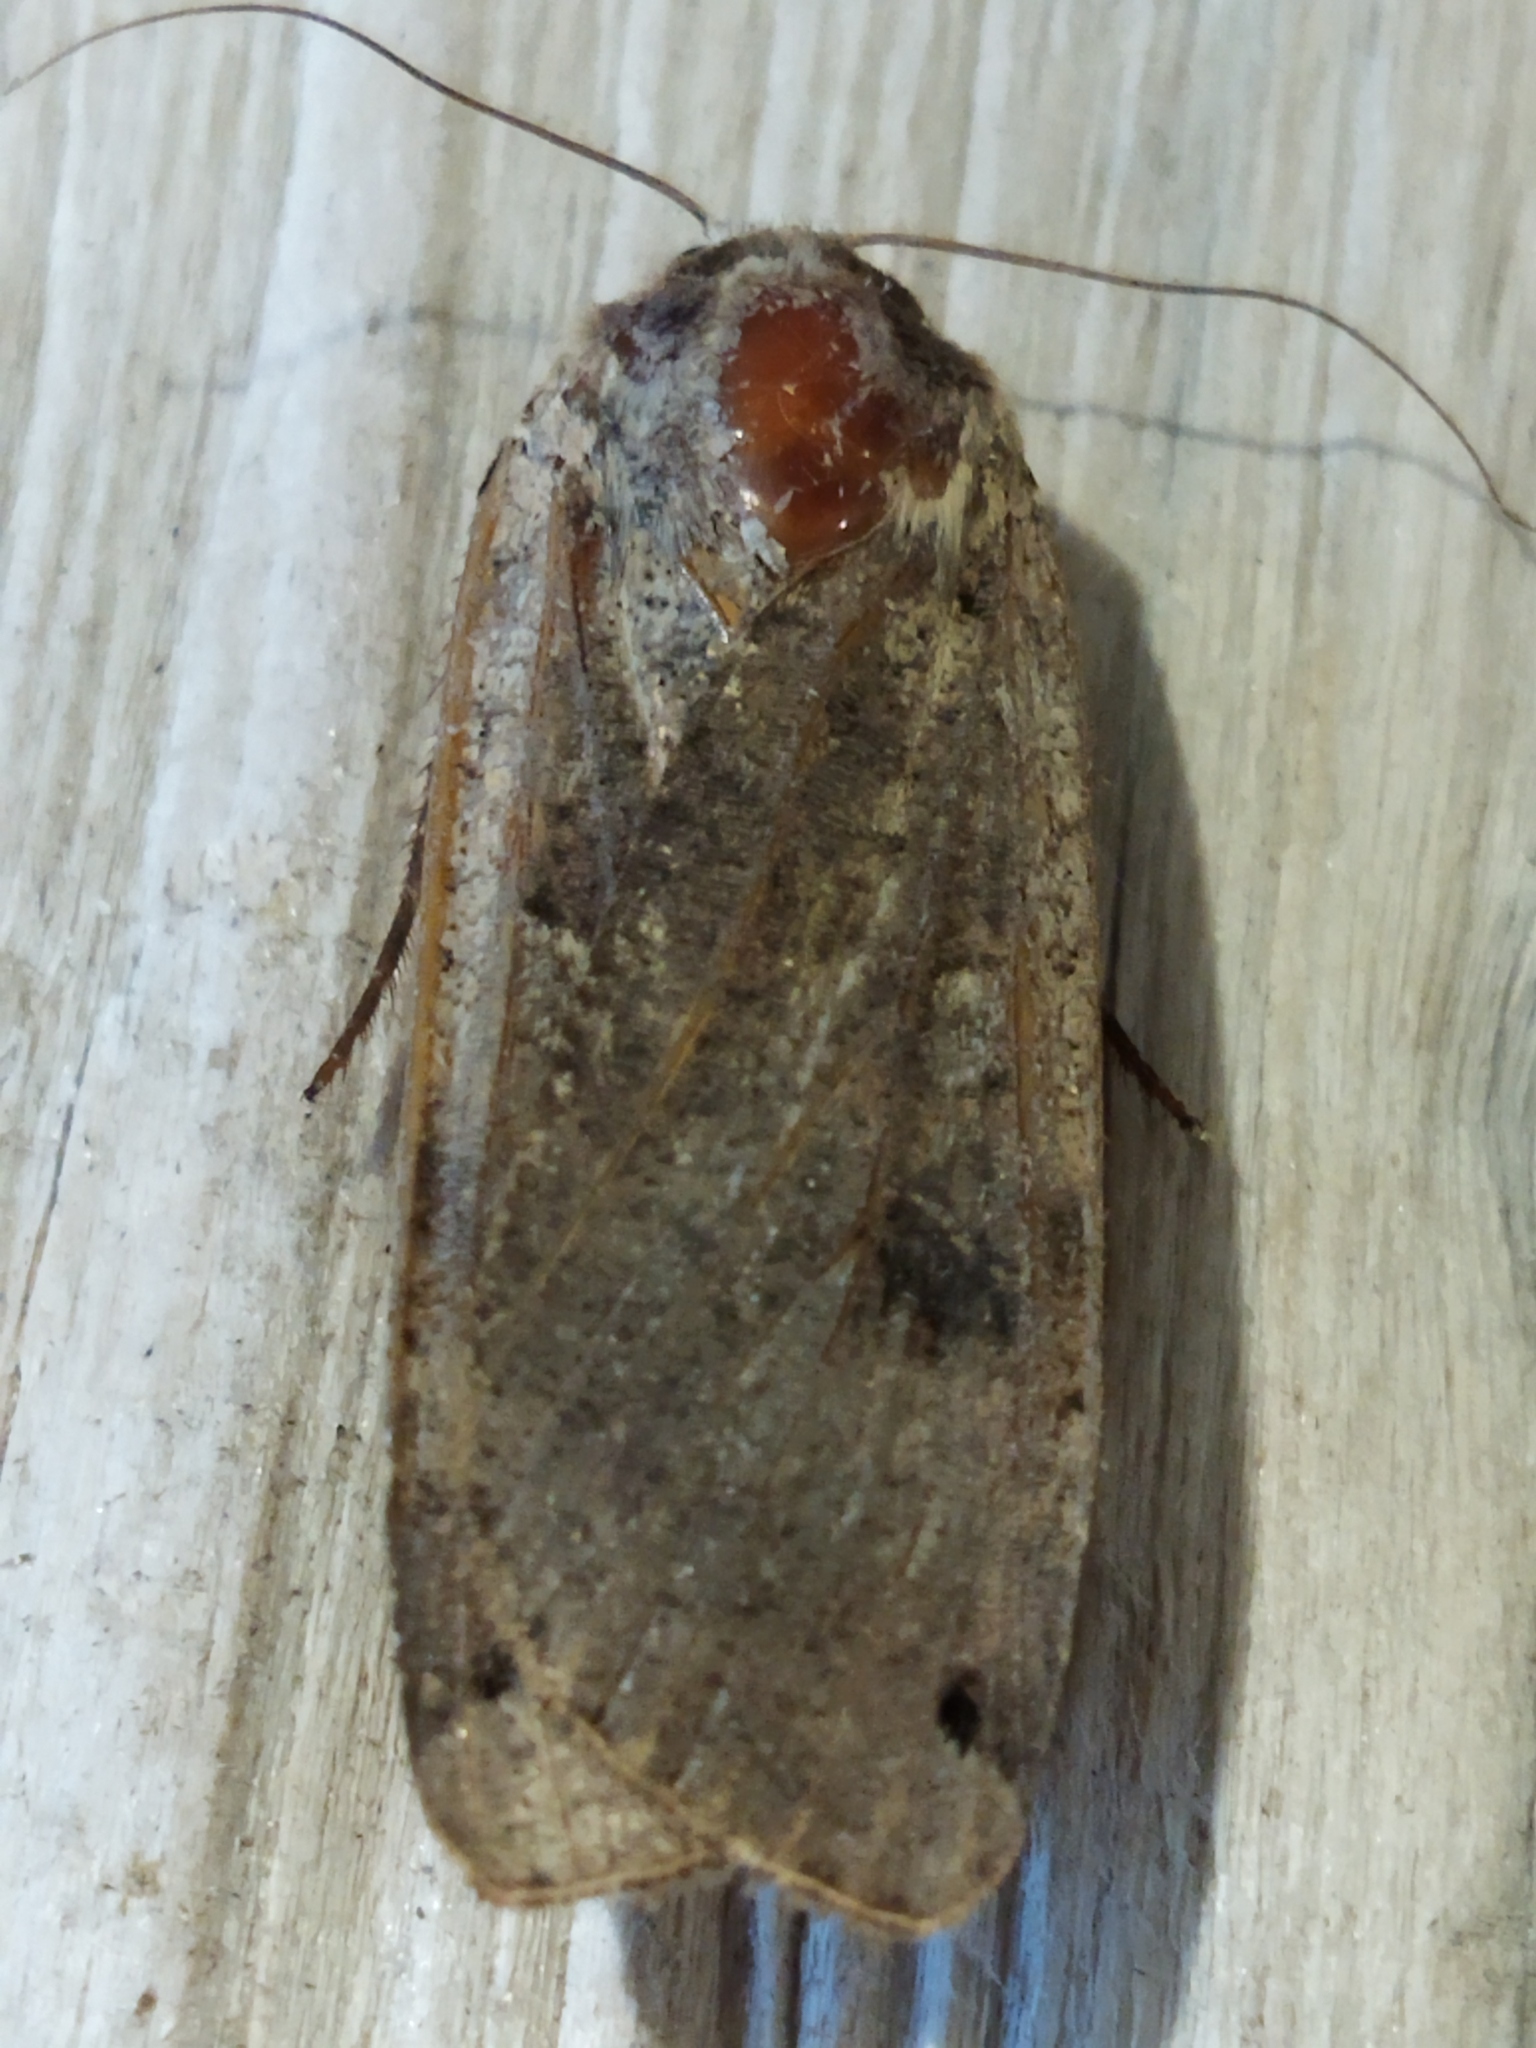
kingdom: Animalia
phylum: Arthropoda
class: Insecta
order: Lepidoptera
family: Noctuidae
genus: Noctua
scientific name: Noctua pronuba
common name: Large yellow underwing
